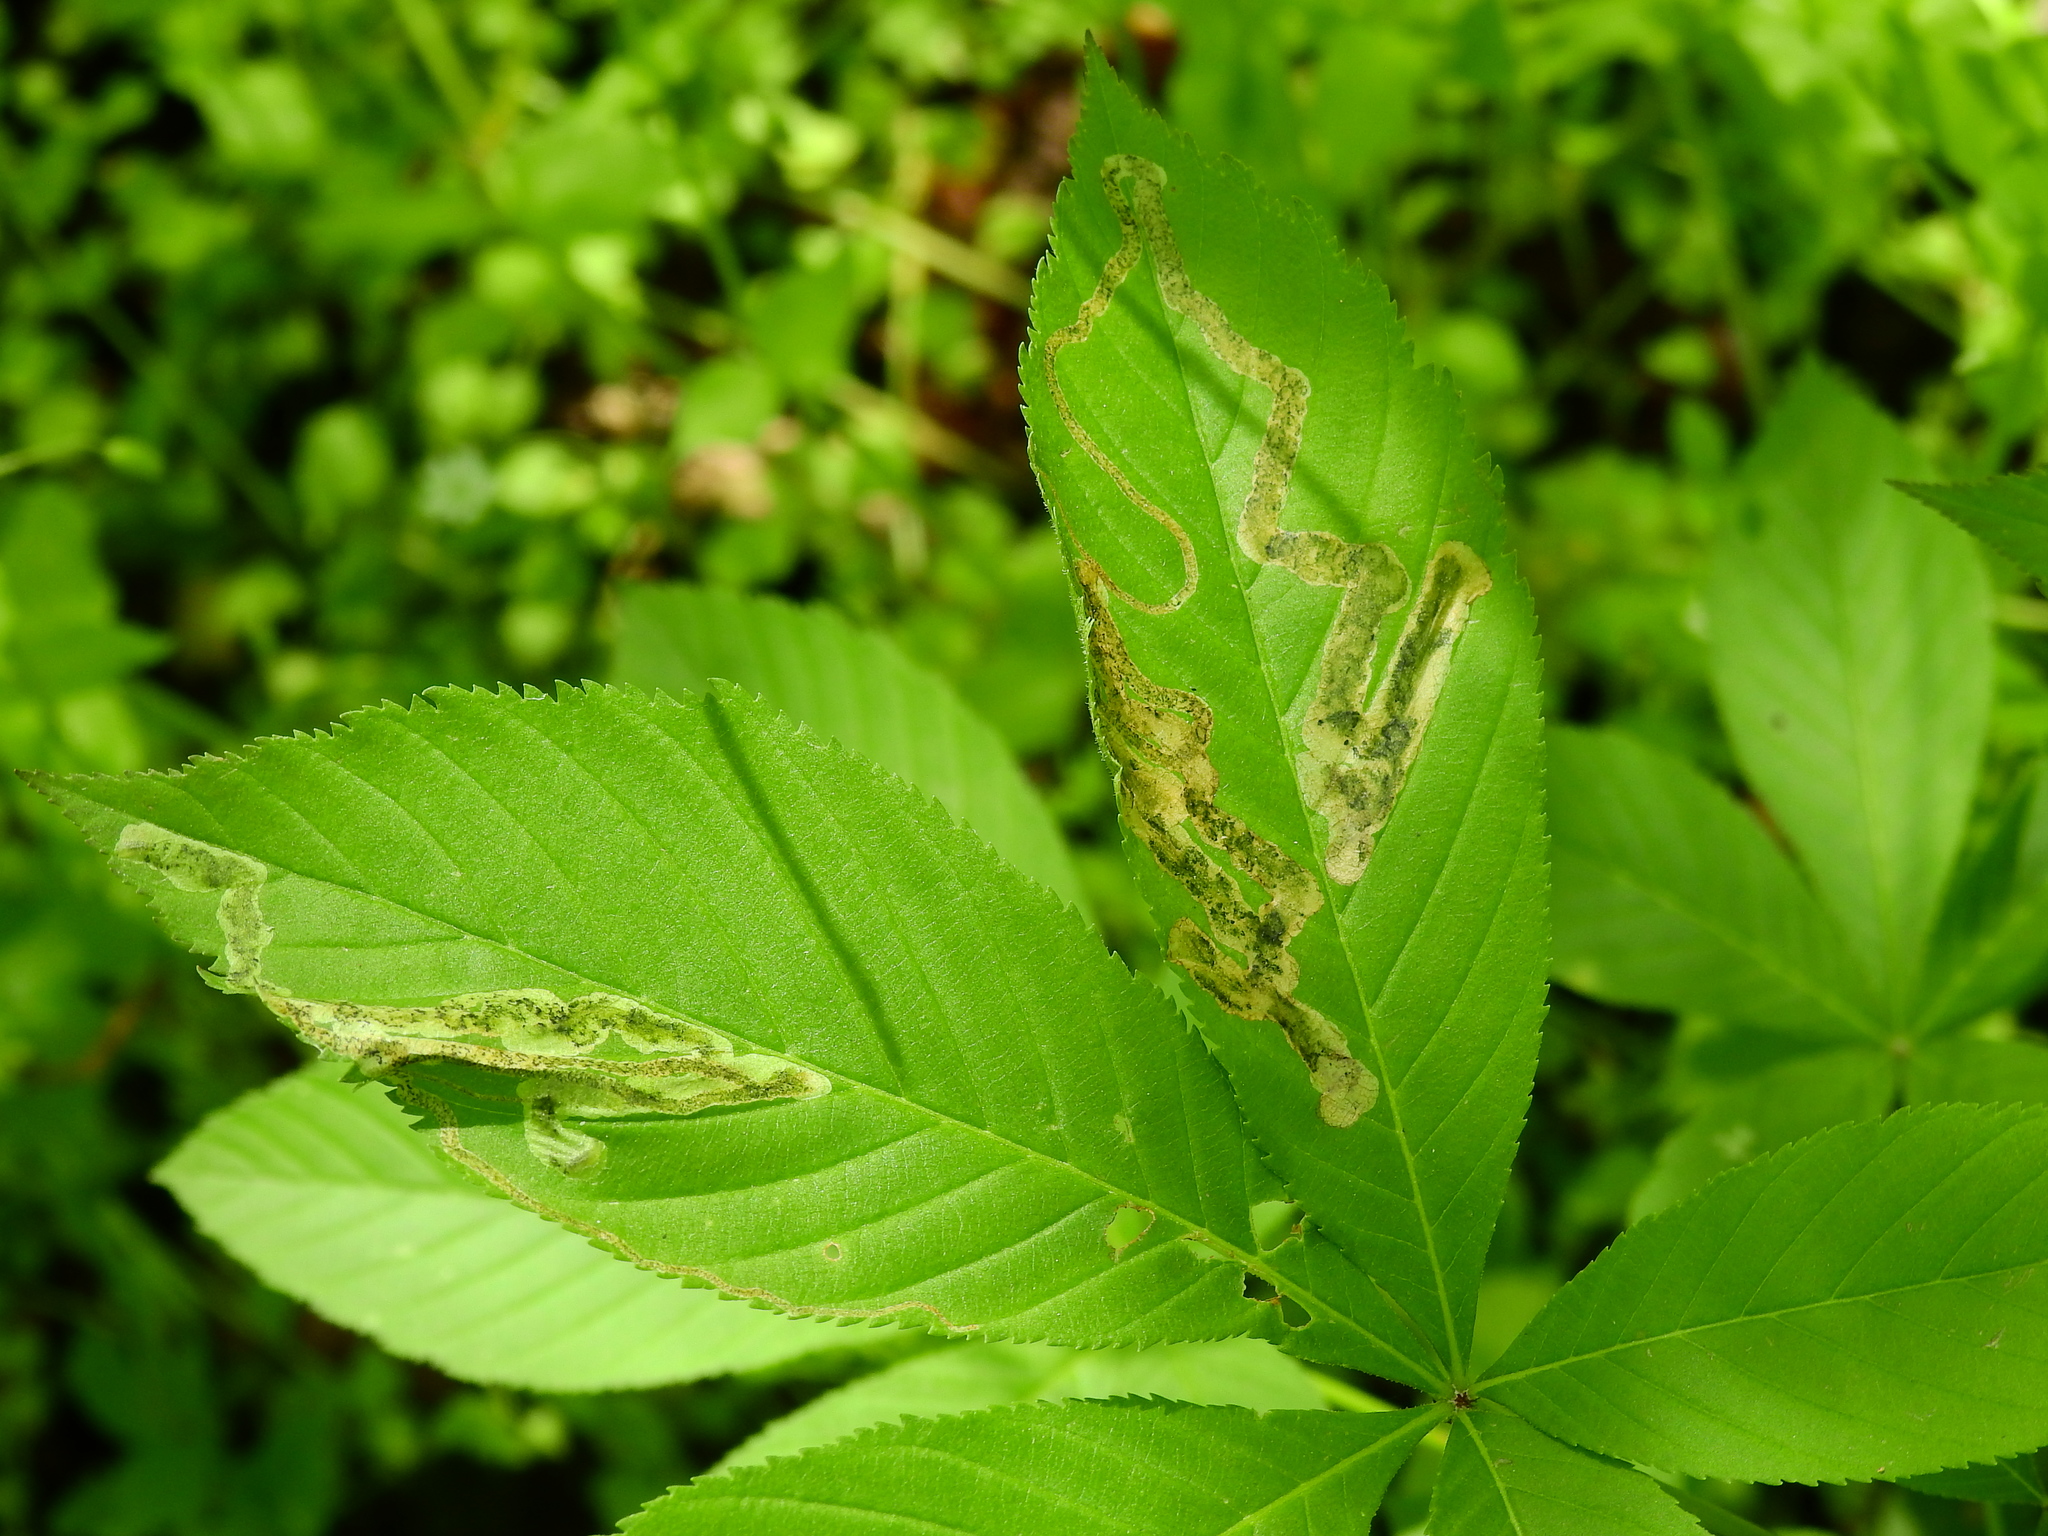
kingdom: Animalia
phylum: Arthropoda
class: Insecta
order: Diptera
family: Agromyzidae
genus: Phytomyza
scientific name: Phytomyza aesculi
